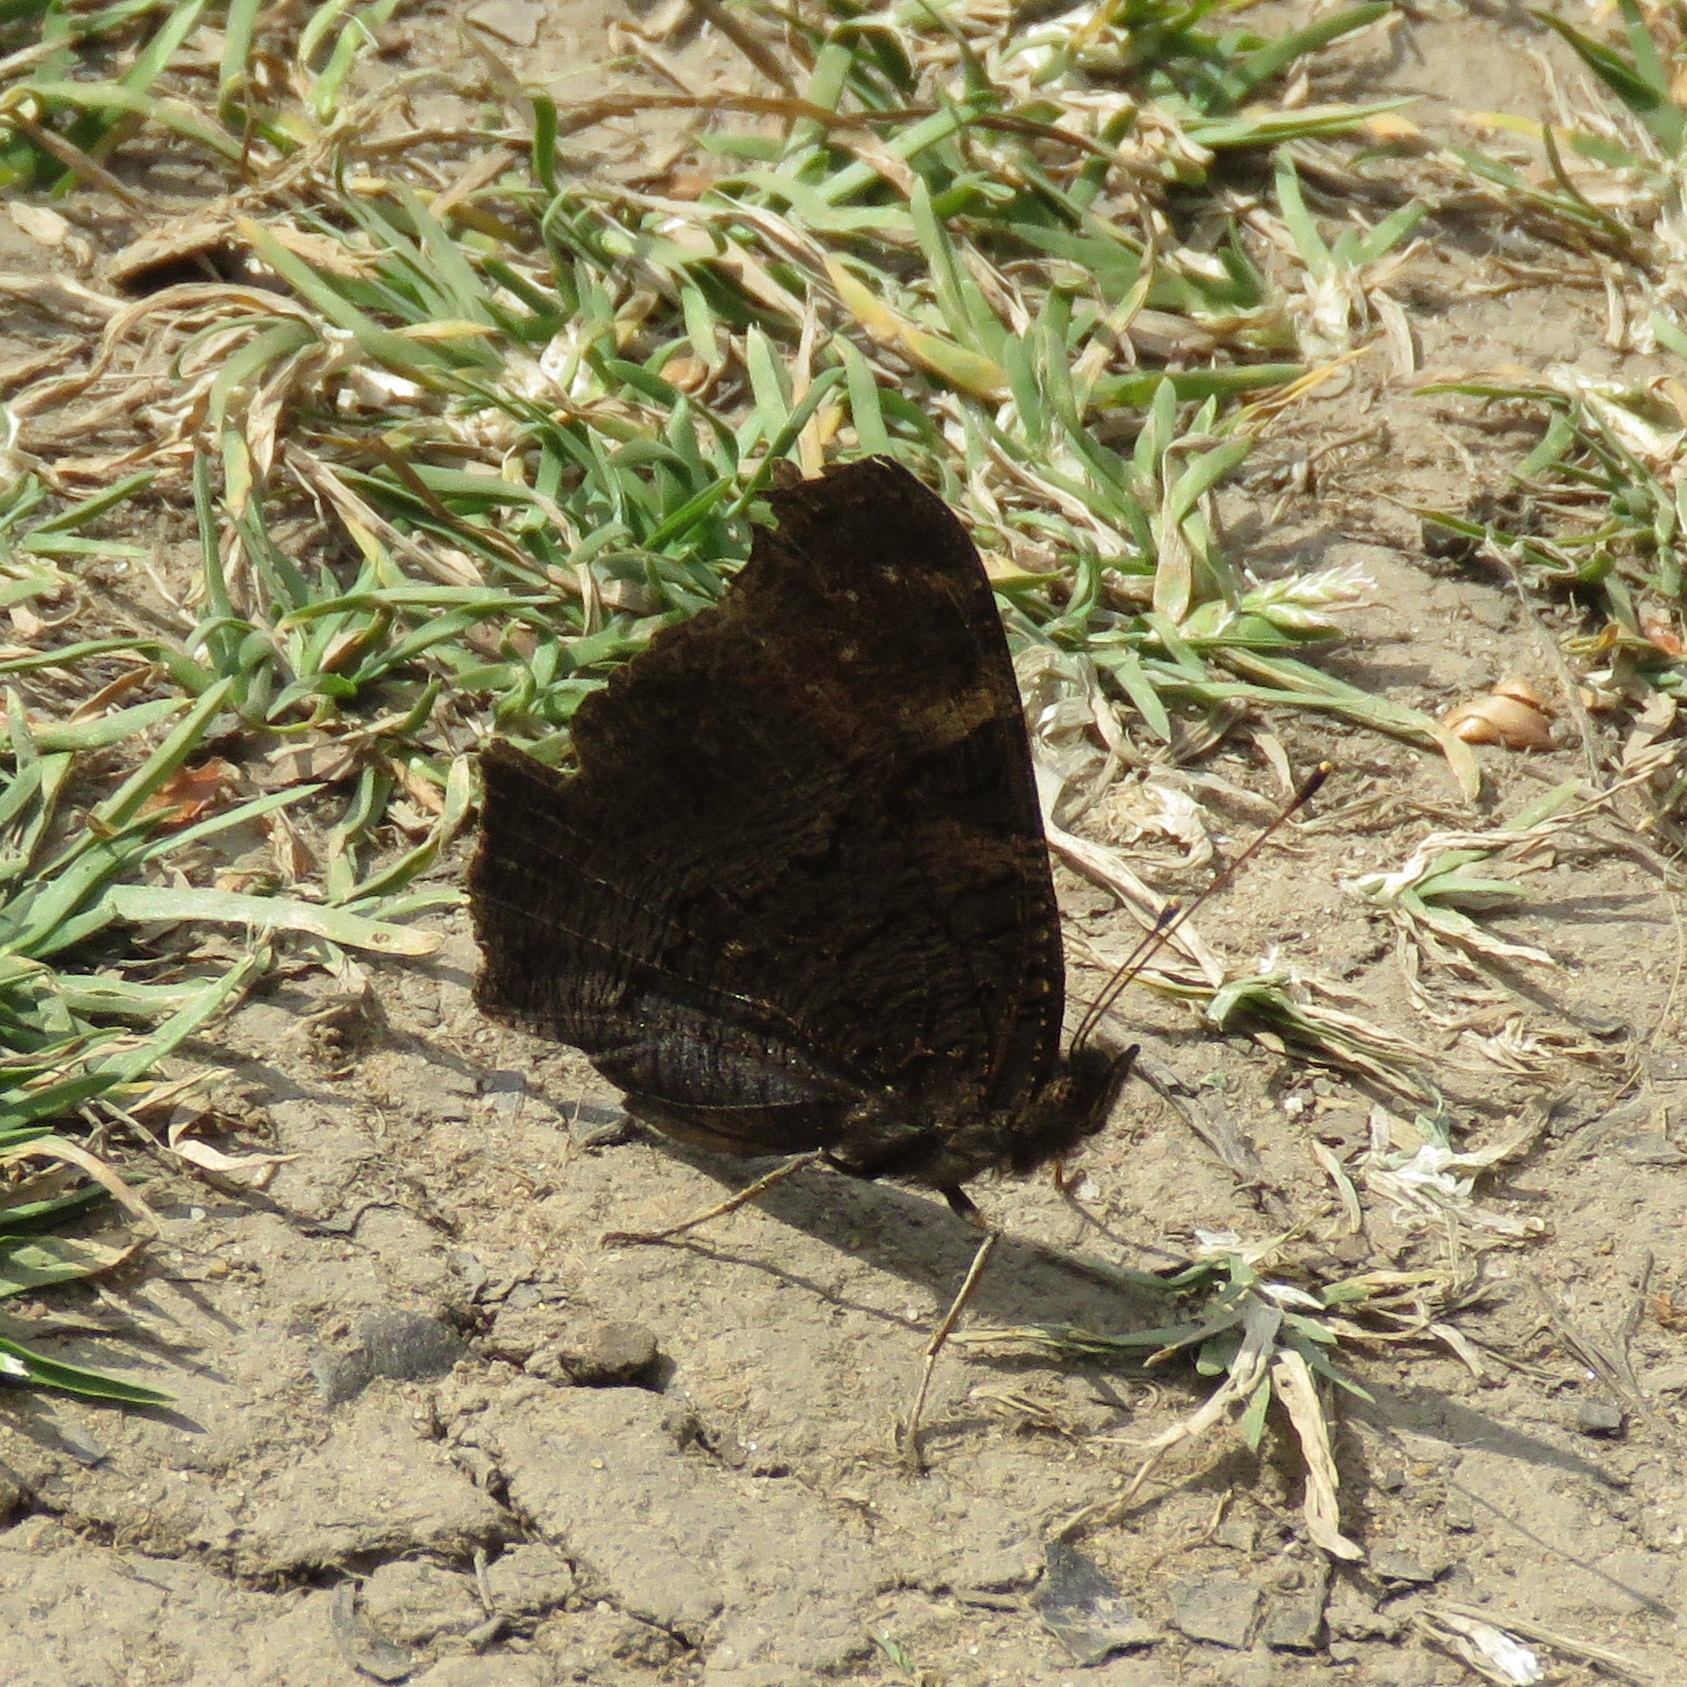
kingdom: Animalia
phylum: Arthropoda
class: Insecta
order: Lepidoptera
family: Nymphalidae
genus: Aglais
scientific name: Aglais io
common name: Peacock
